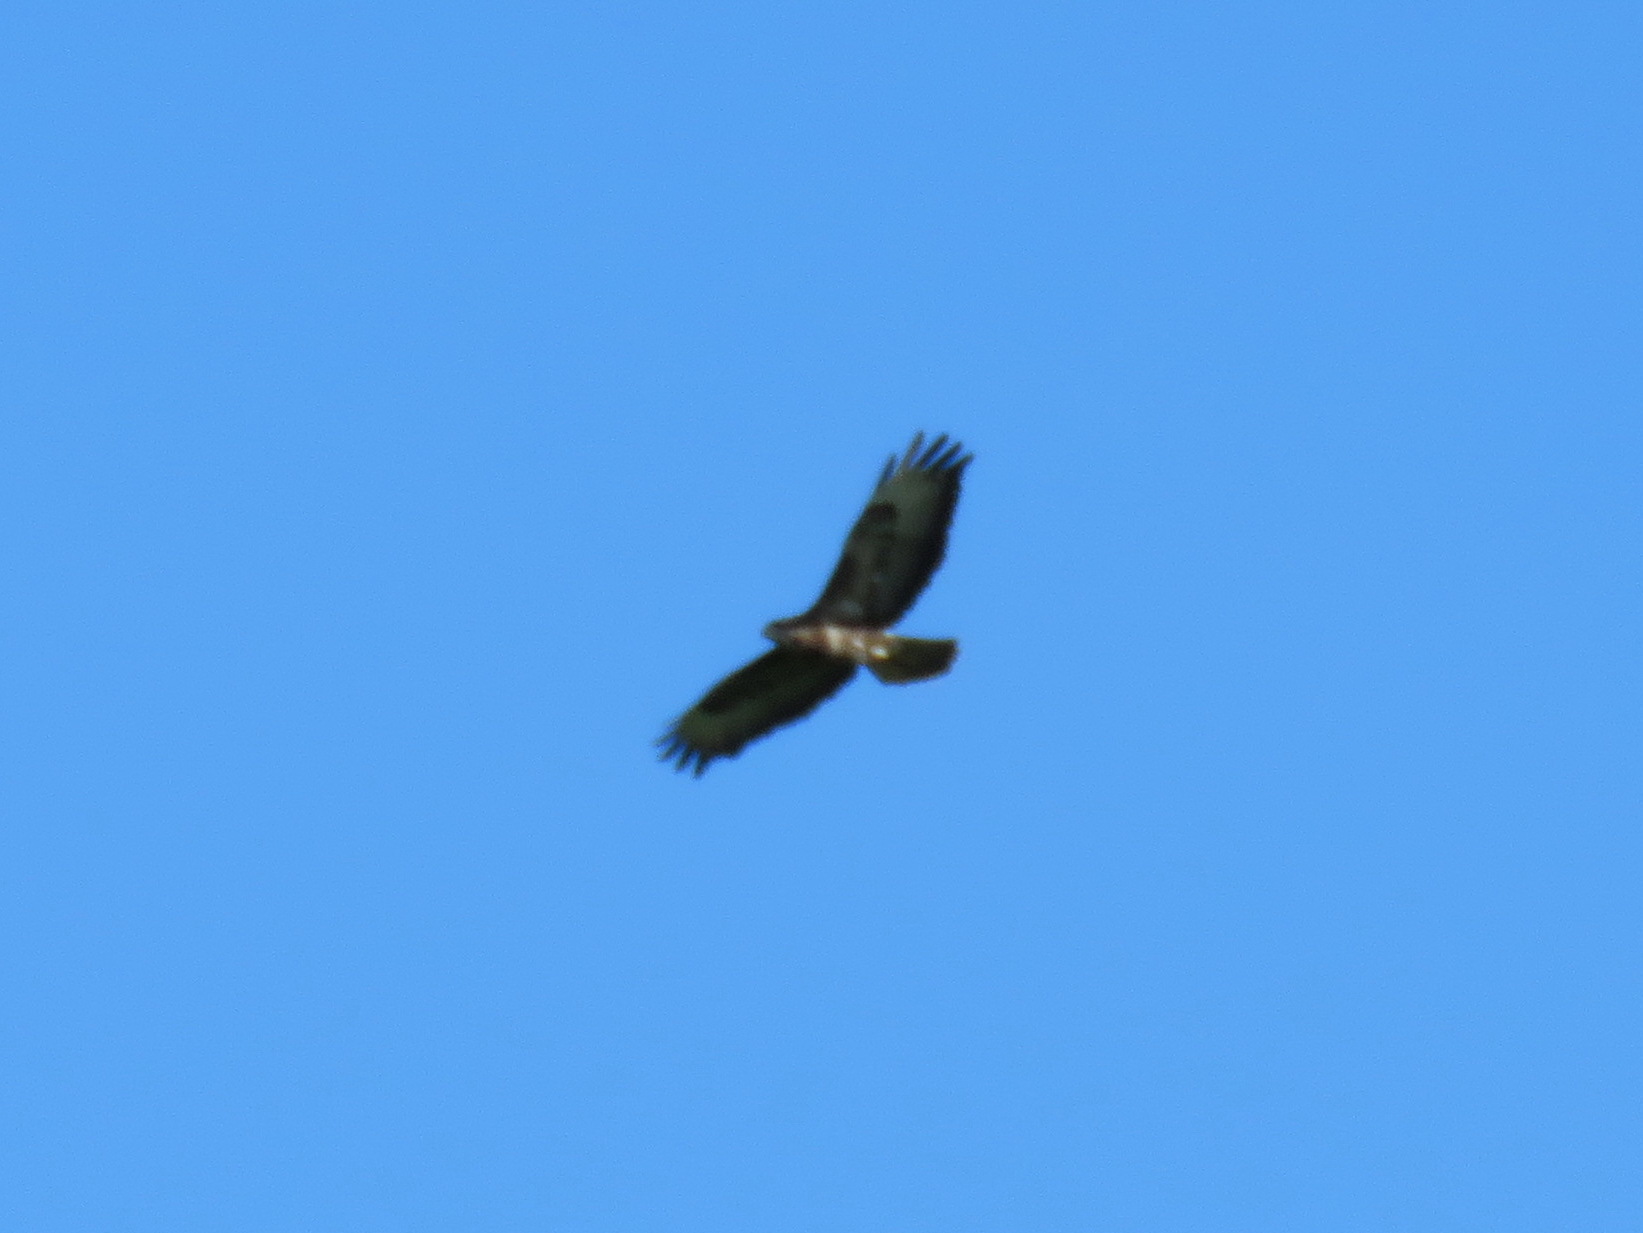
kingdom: Animalia
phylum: Chordata
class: Aves
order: Accipitriformes
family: Accipitridae
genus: Buteo
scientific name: Buteo buteo
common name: Common buzzard
